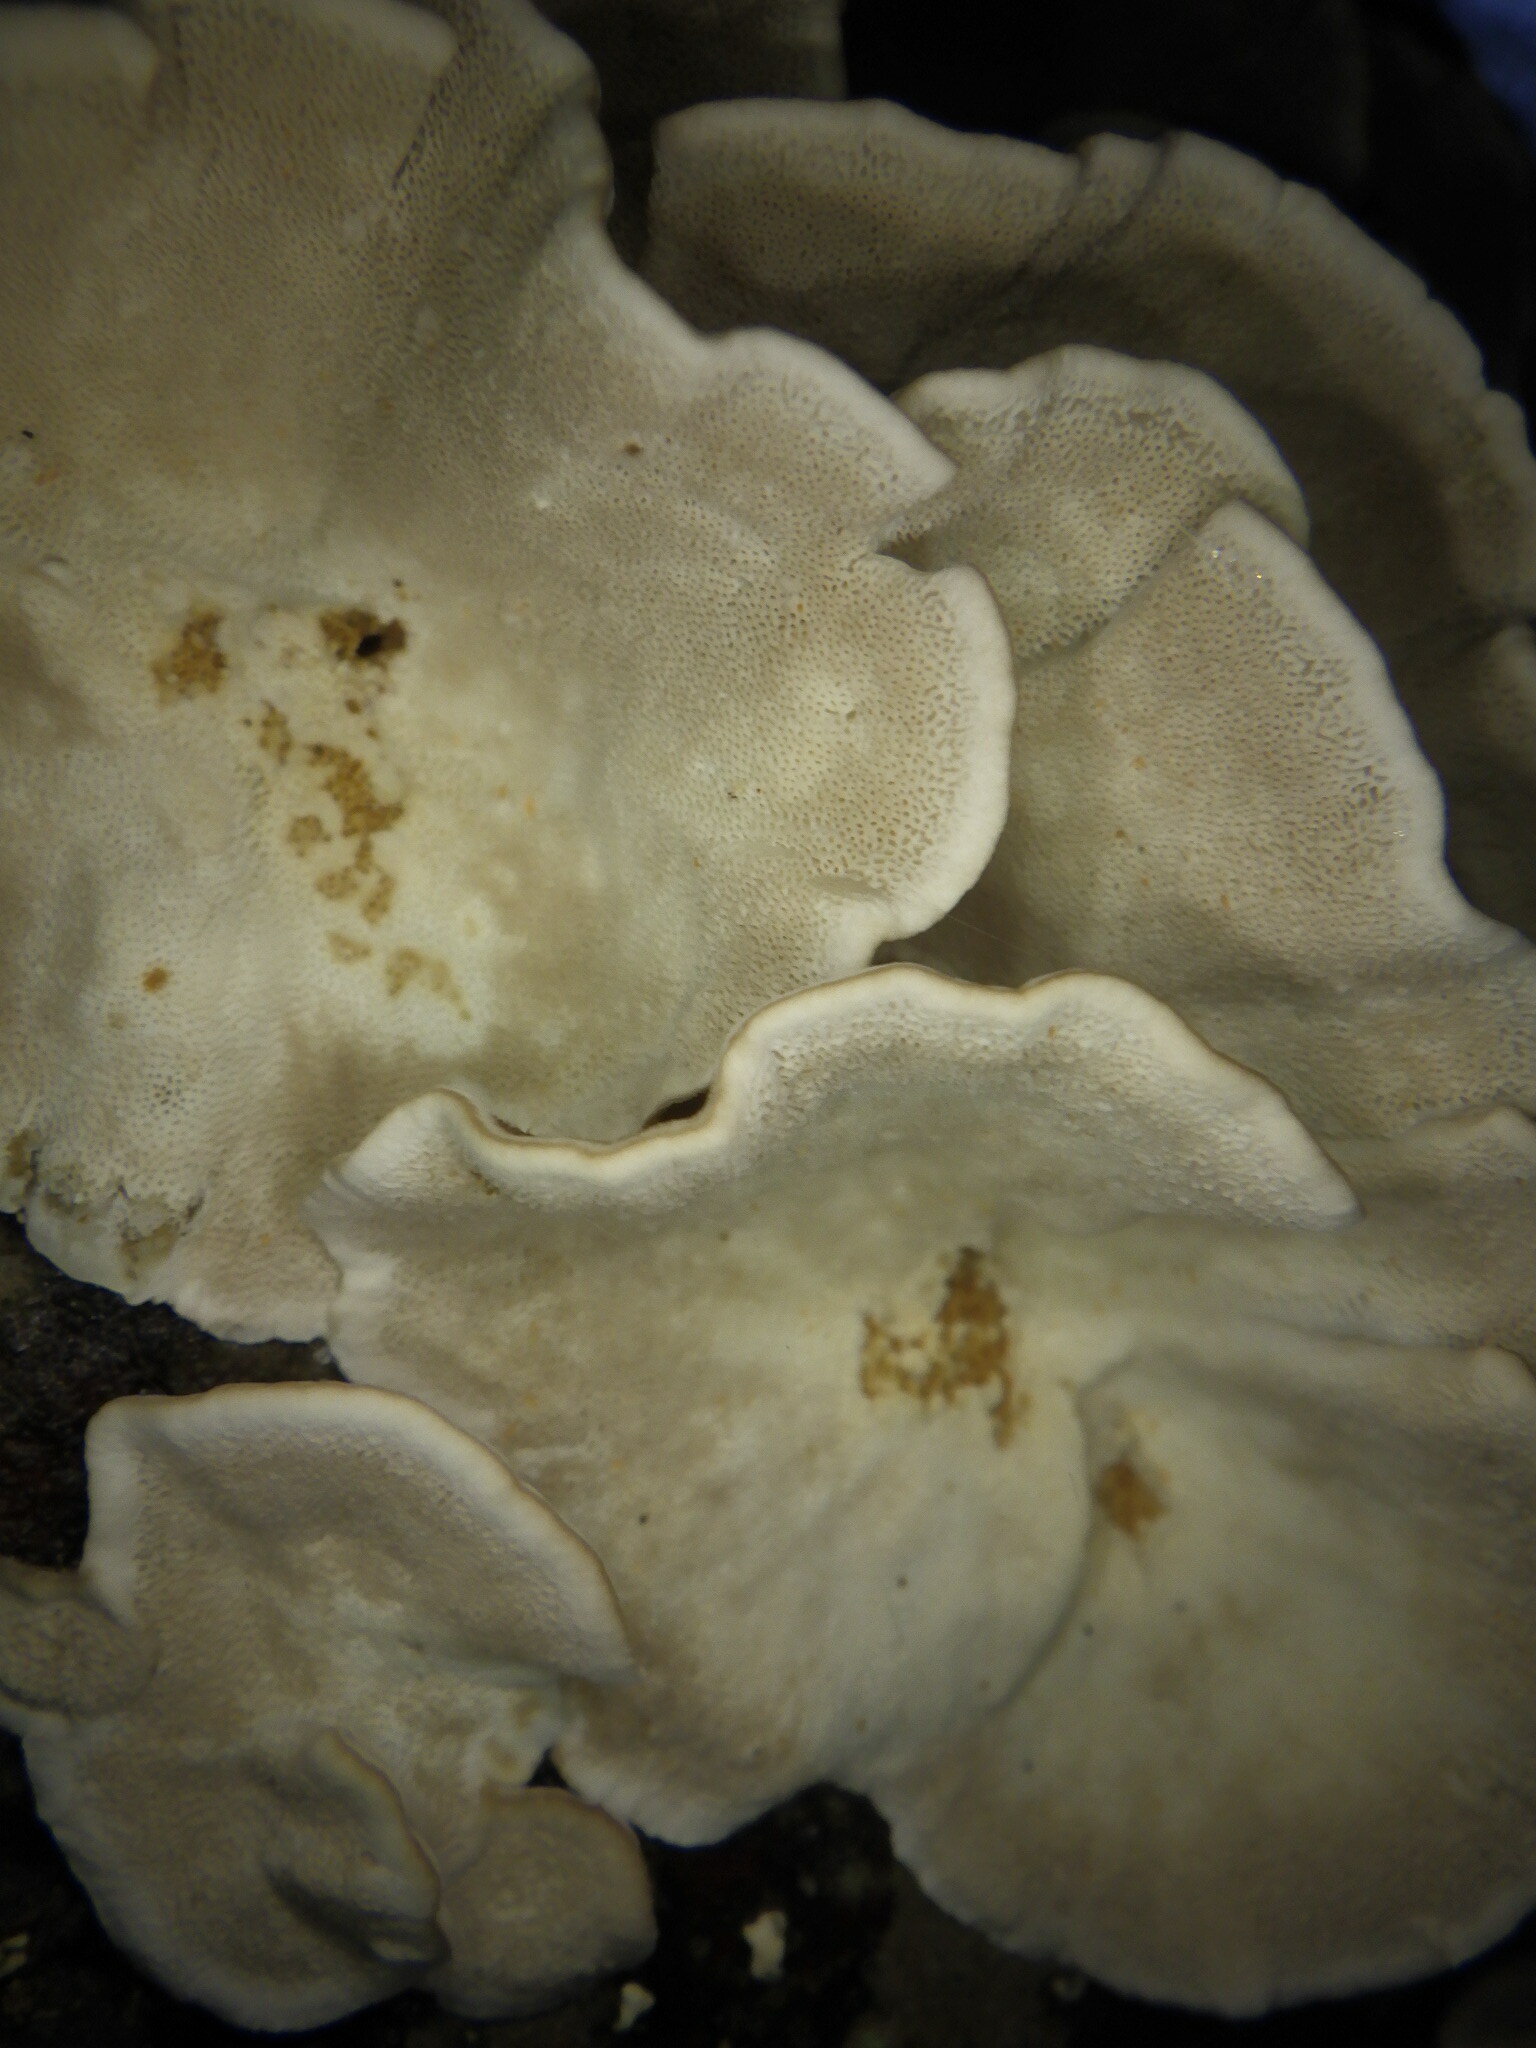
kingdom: Fungi
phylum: Basidiomycota
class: Agaricomycetes
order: Polyporales
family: Polyporaceae
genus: Trametes
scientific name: Trametes versicolor
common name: Turkeytail
